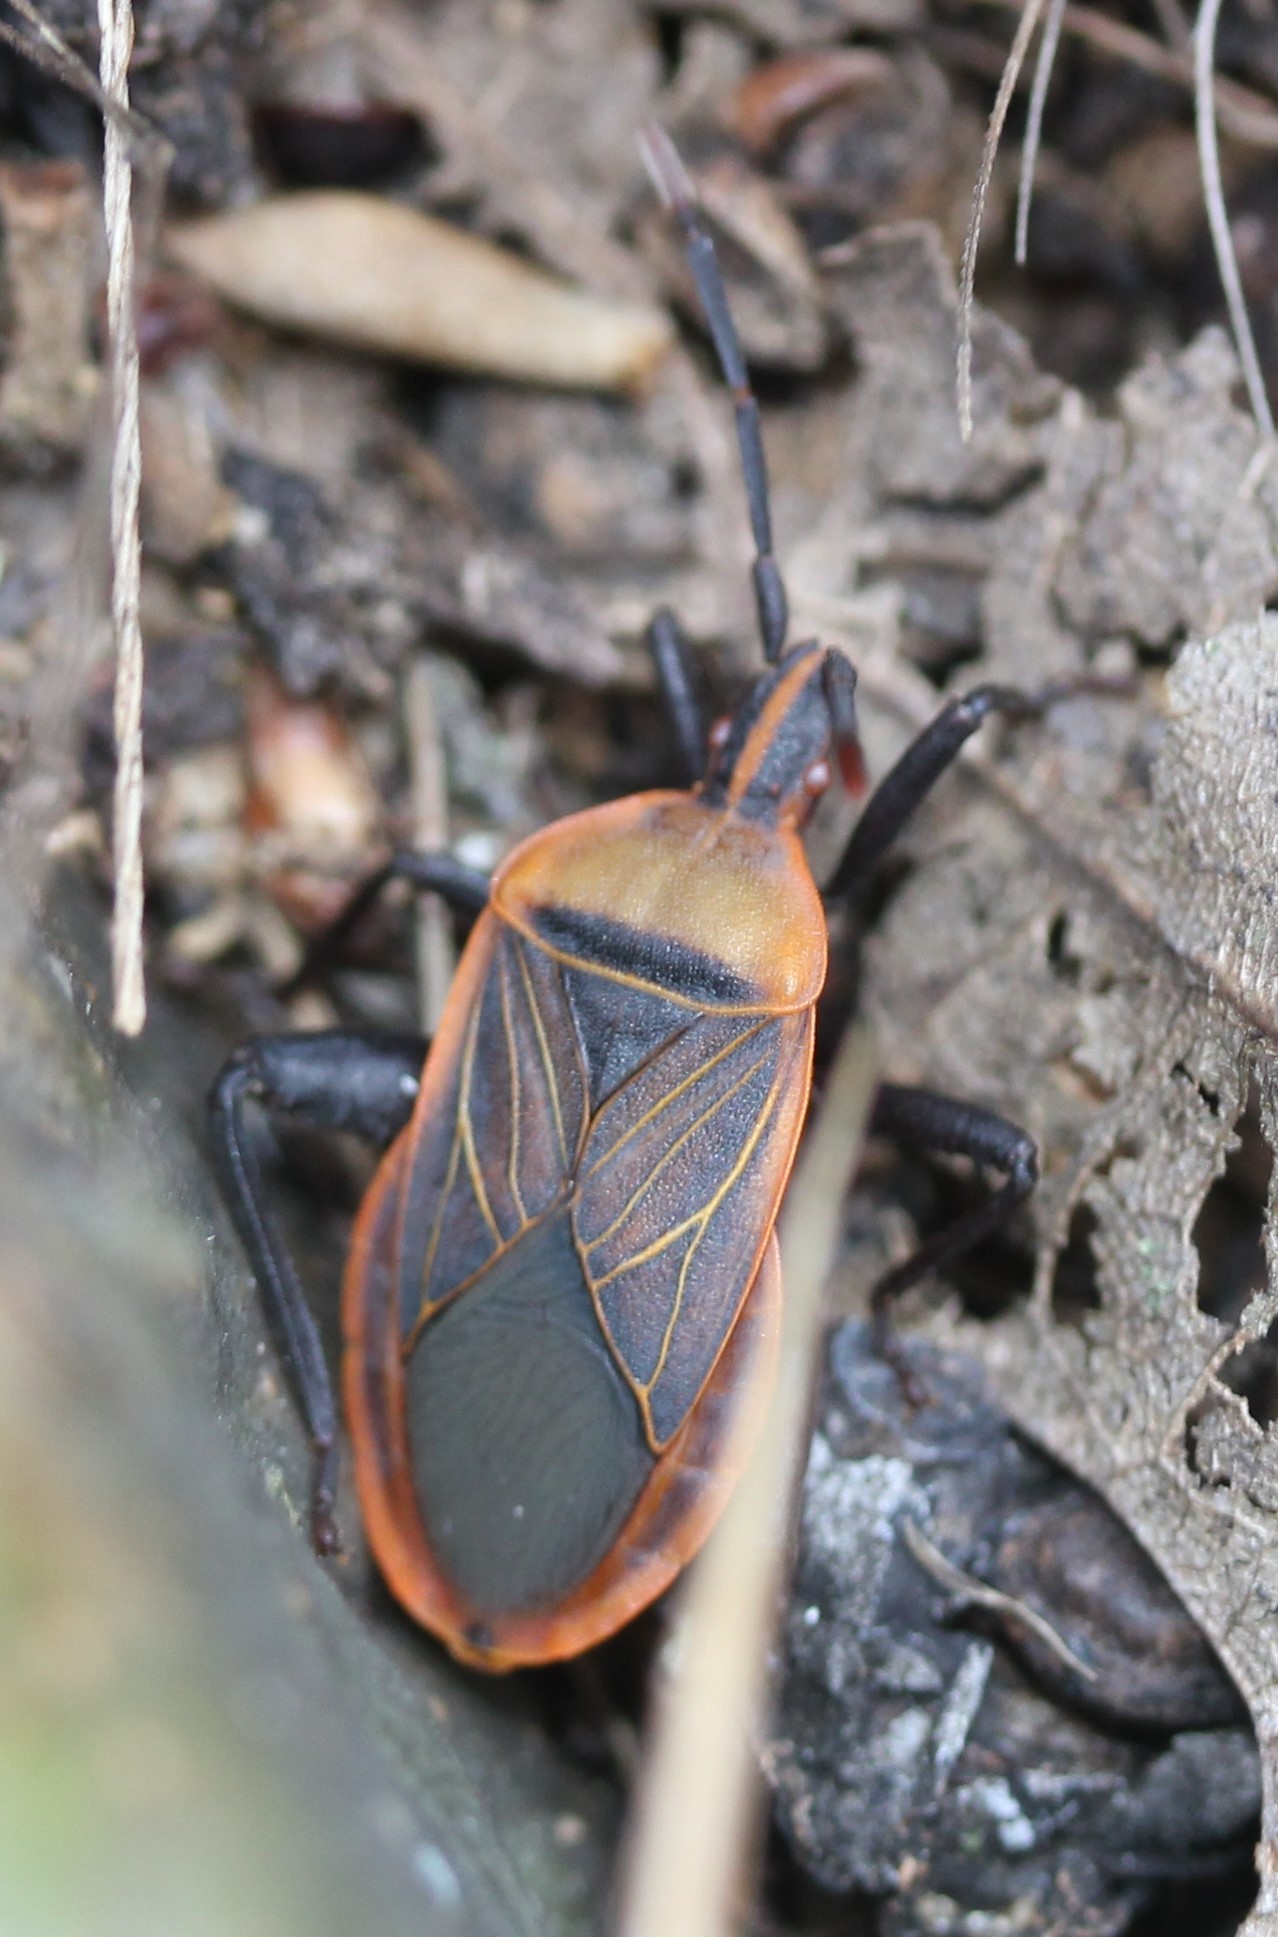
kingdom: Animalia
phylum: Arthropoda
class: Insecta
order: Hemiptera
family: Coreidae
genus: Chelinidea
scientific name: Chelinidea vittiger
